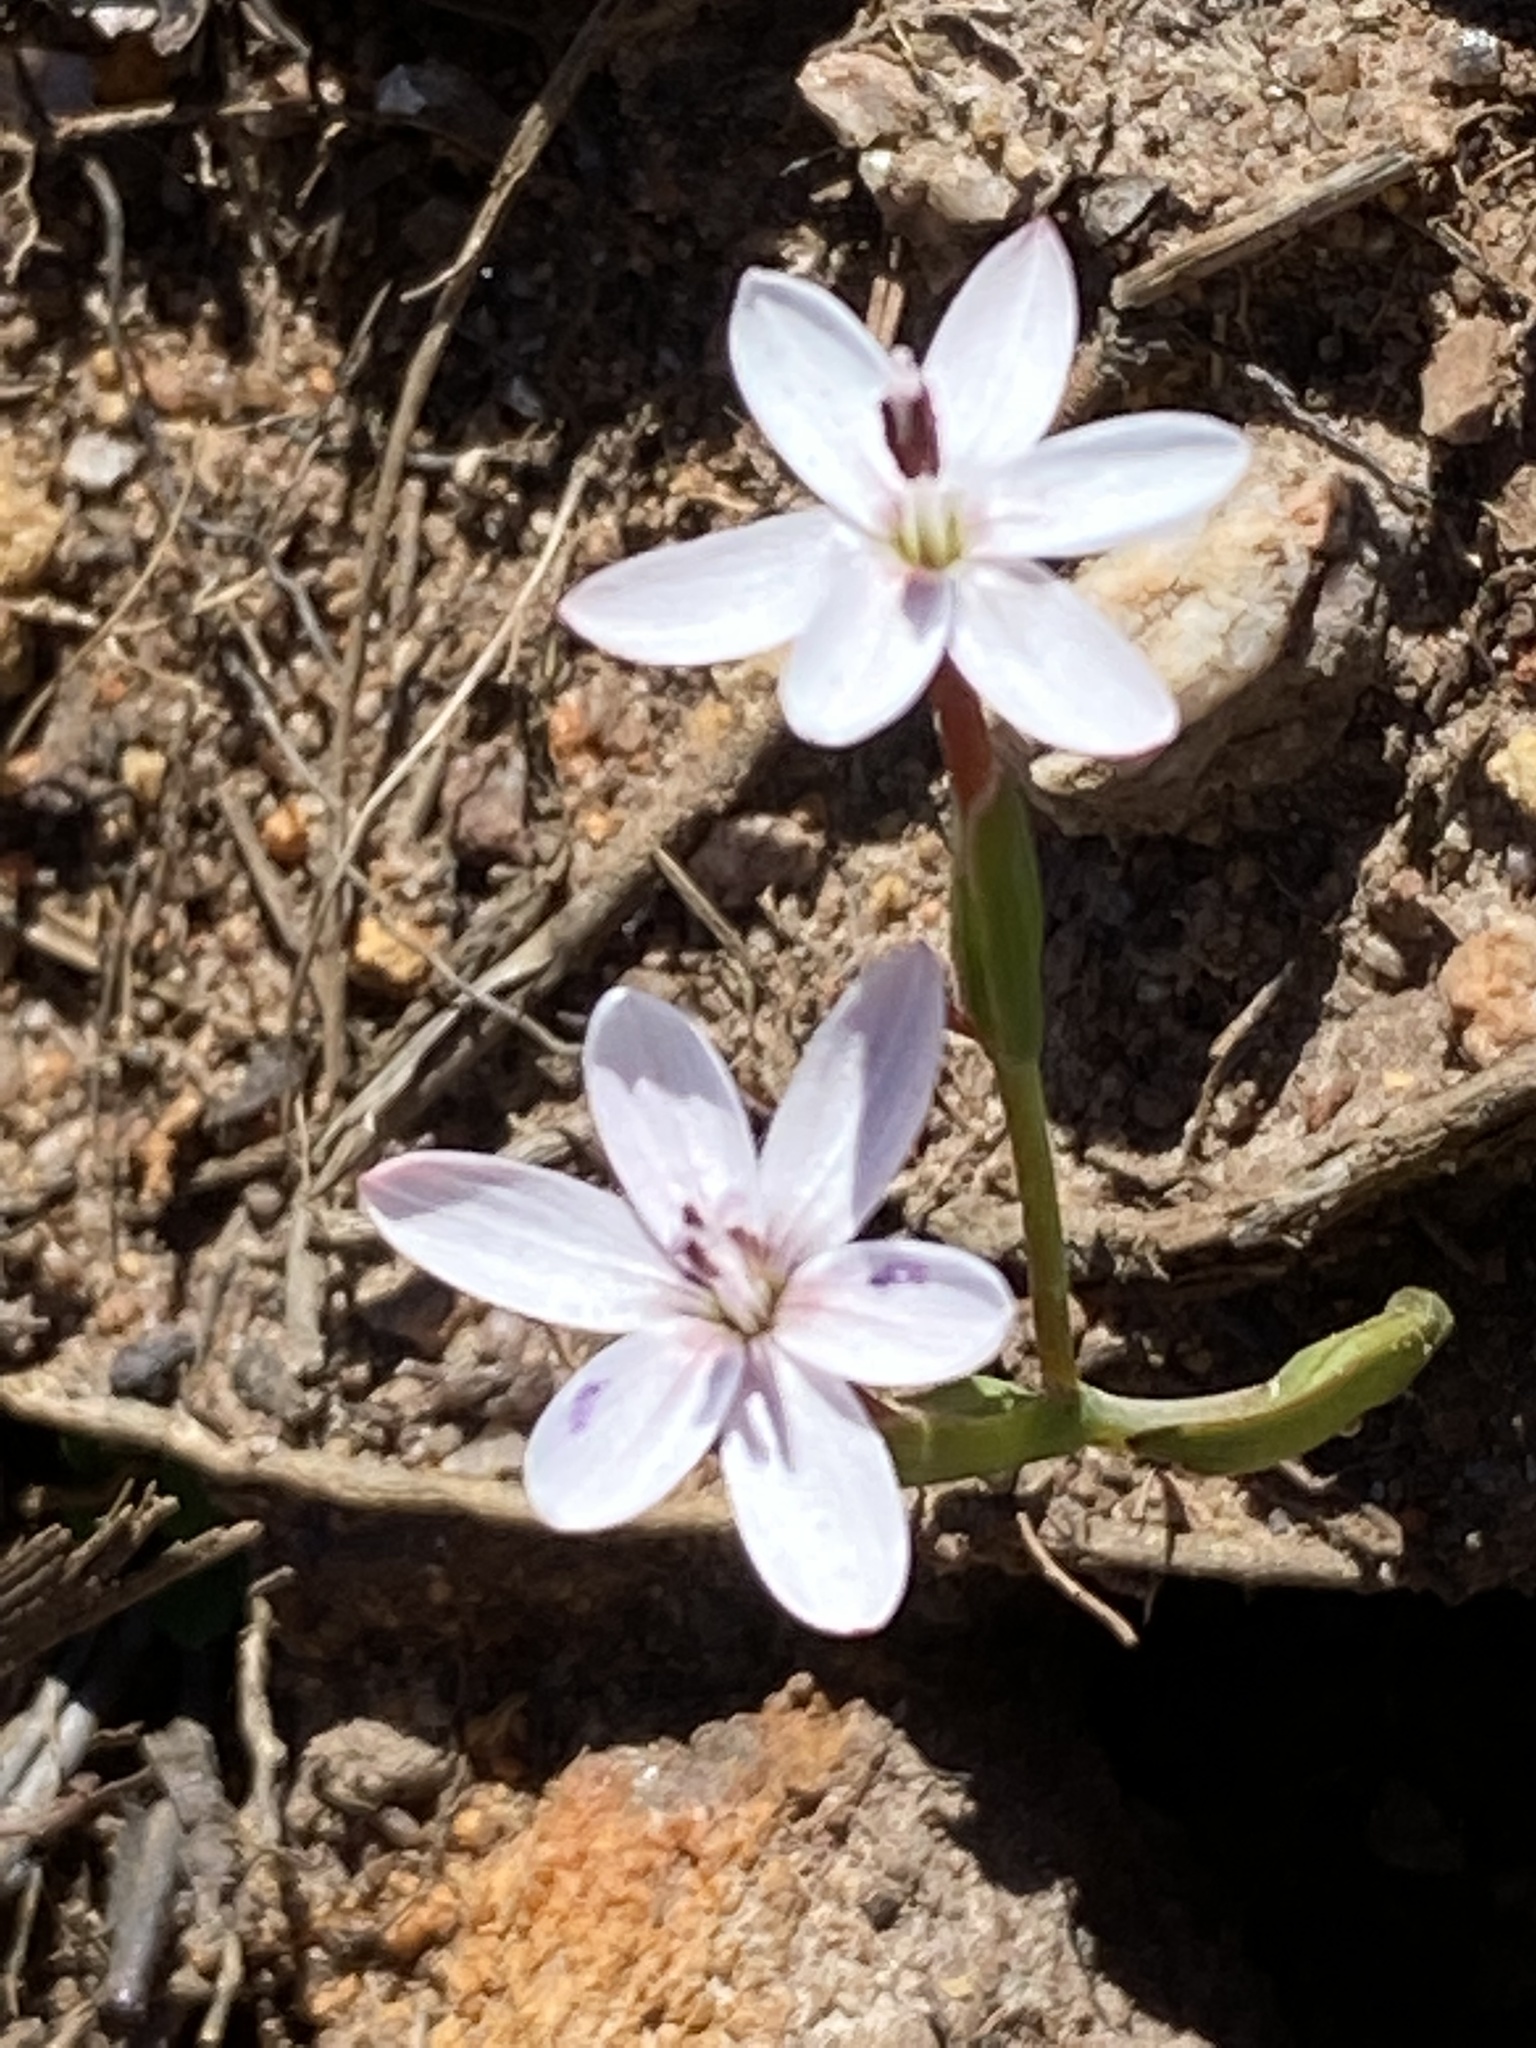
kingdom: Plantae
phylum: Tracheophyta
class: Liliopsida
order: Asparagales
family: Iridaceae
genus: Geissorhiza
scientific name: Geissorhiza ovata
